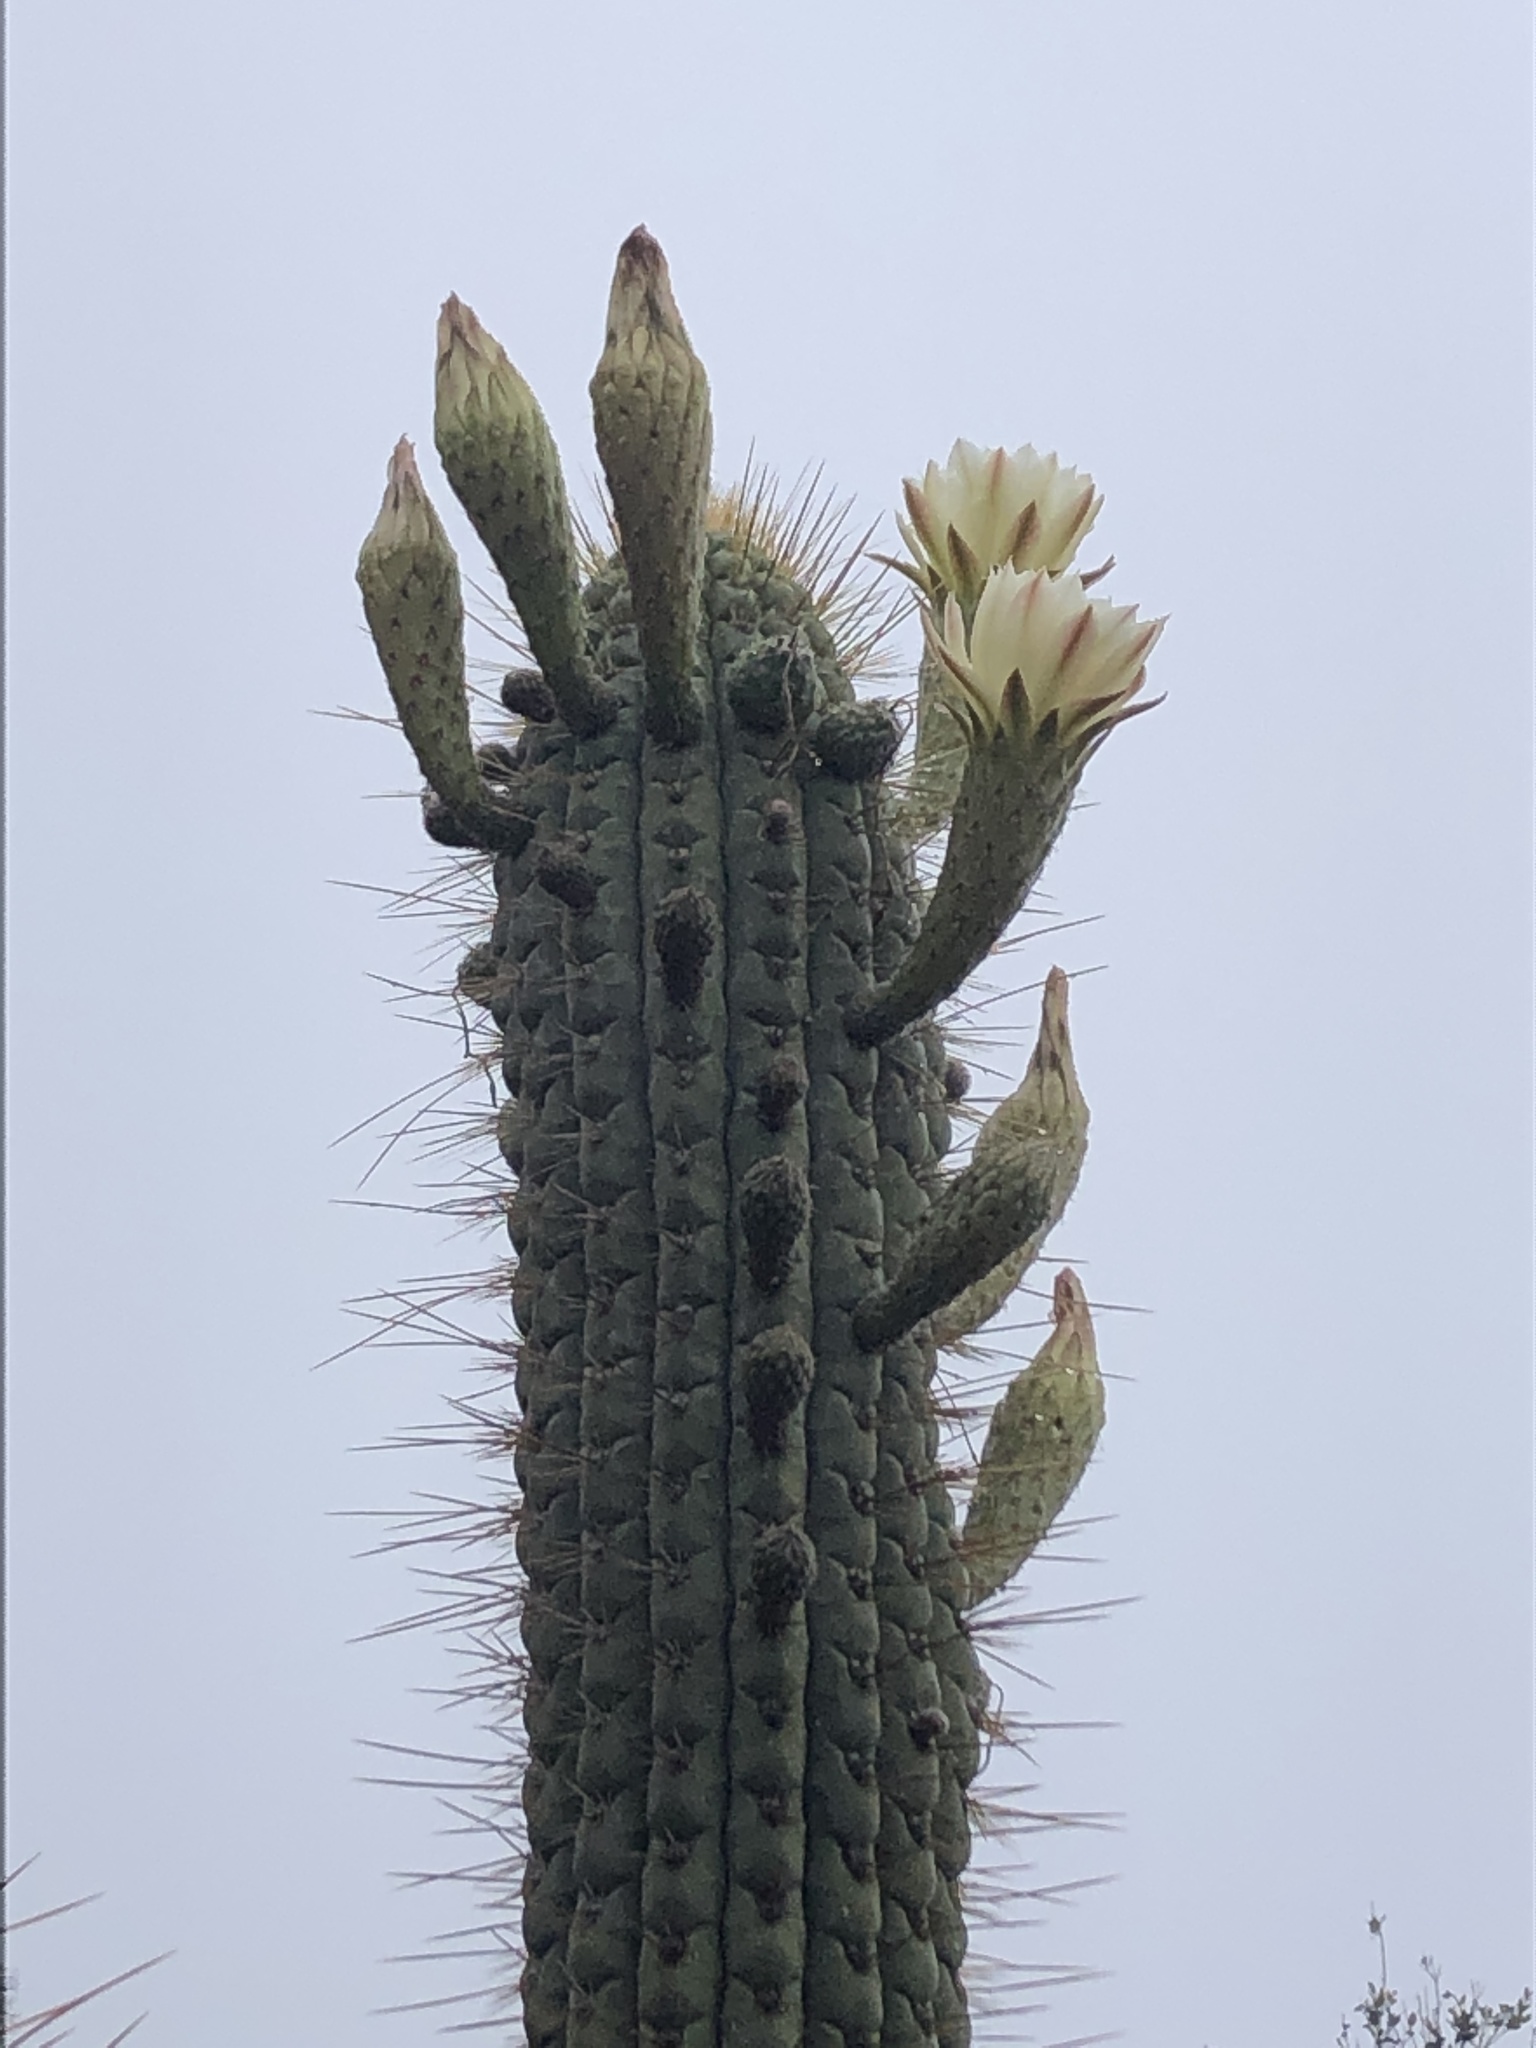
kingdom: Plantae
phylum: Tracheophyta
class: Magnoliopsida
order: Caryophyllales
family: Cactaceae
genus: Leucostele
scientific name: Leucostele chiloensis
